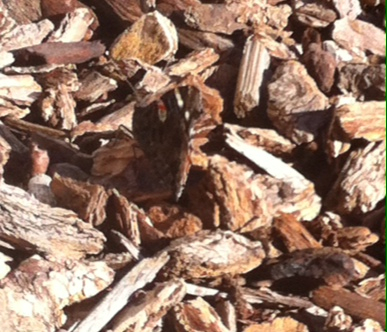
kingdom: Animalia
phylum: Arthropoda
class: Insecta
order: Lepidoptera
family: Nymphalidae
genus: Vanessa
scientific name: Vanessa atalanta
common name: Red admiral
